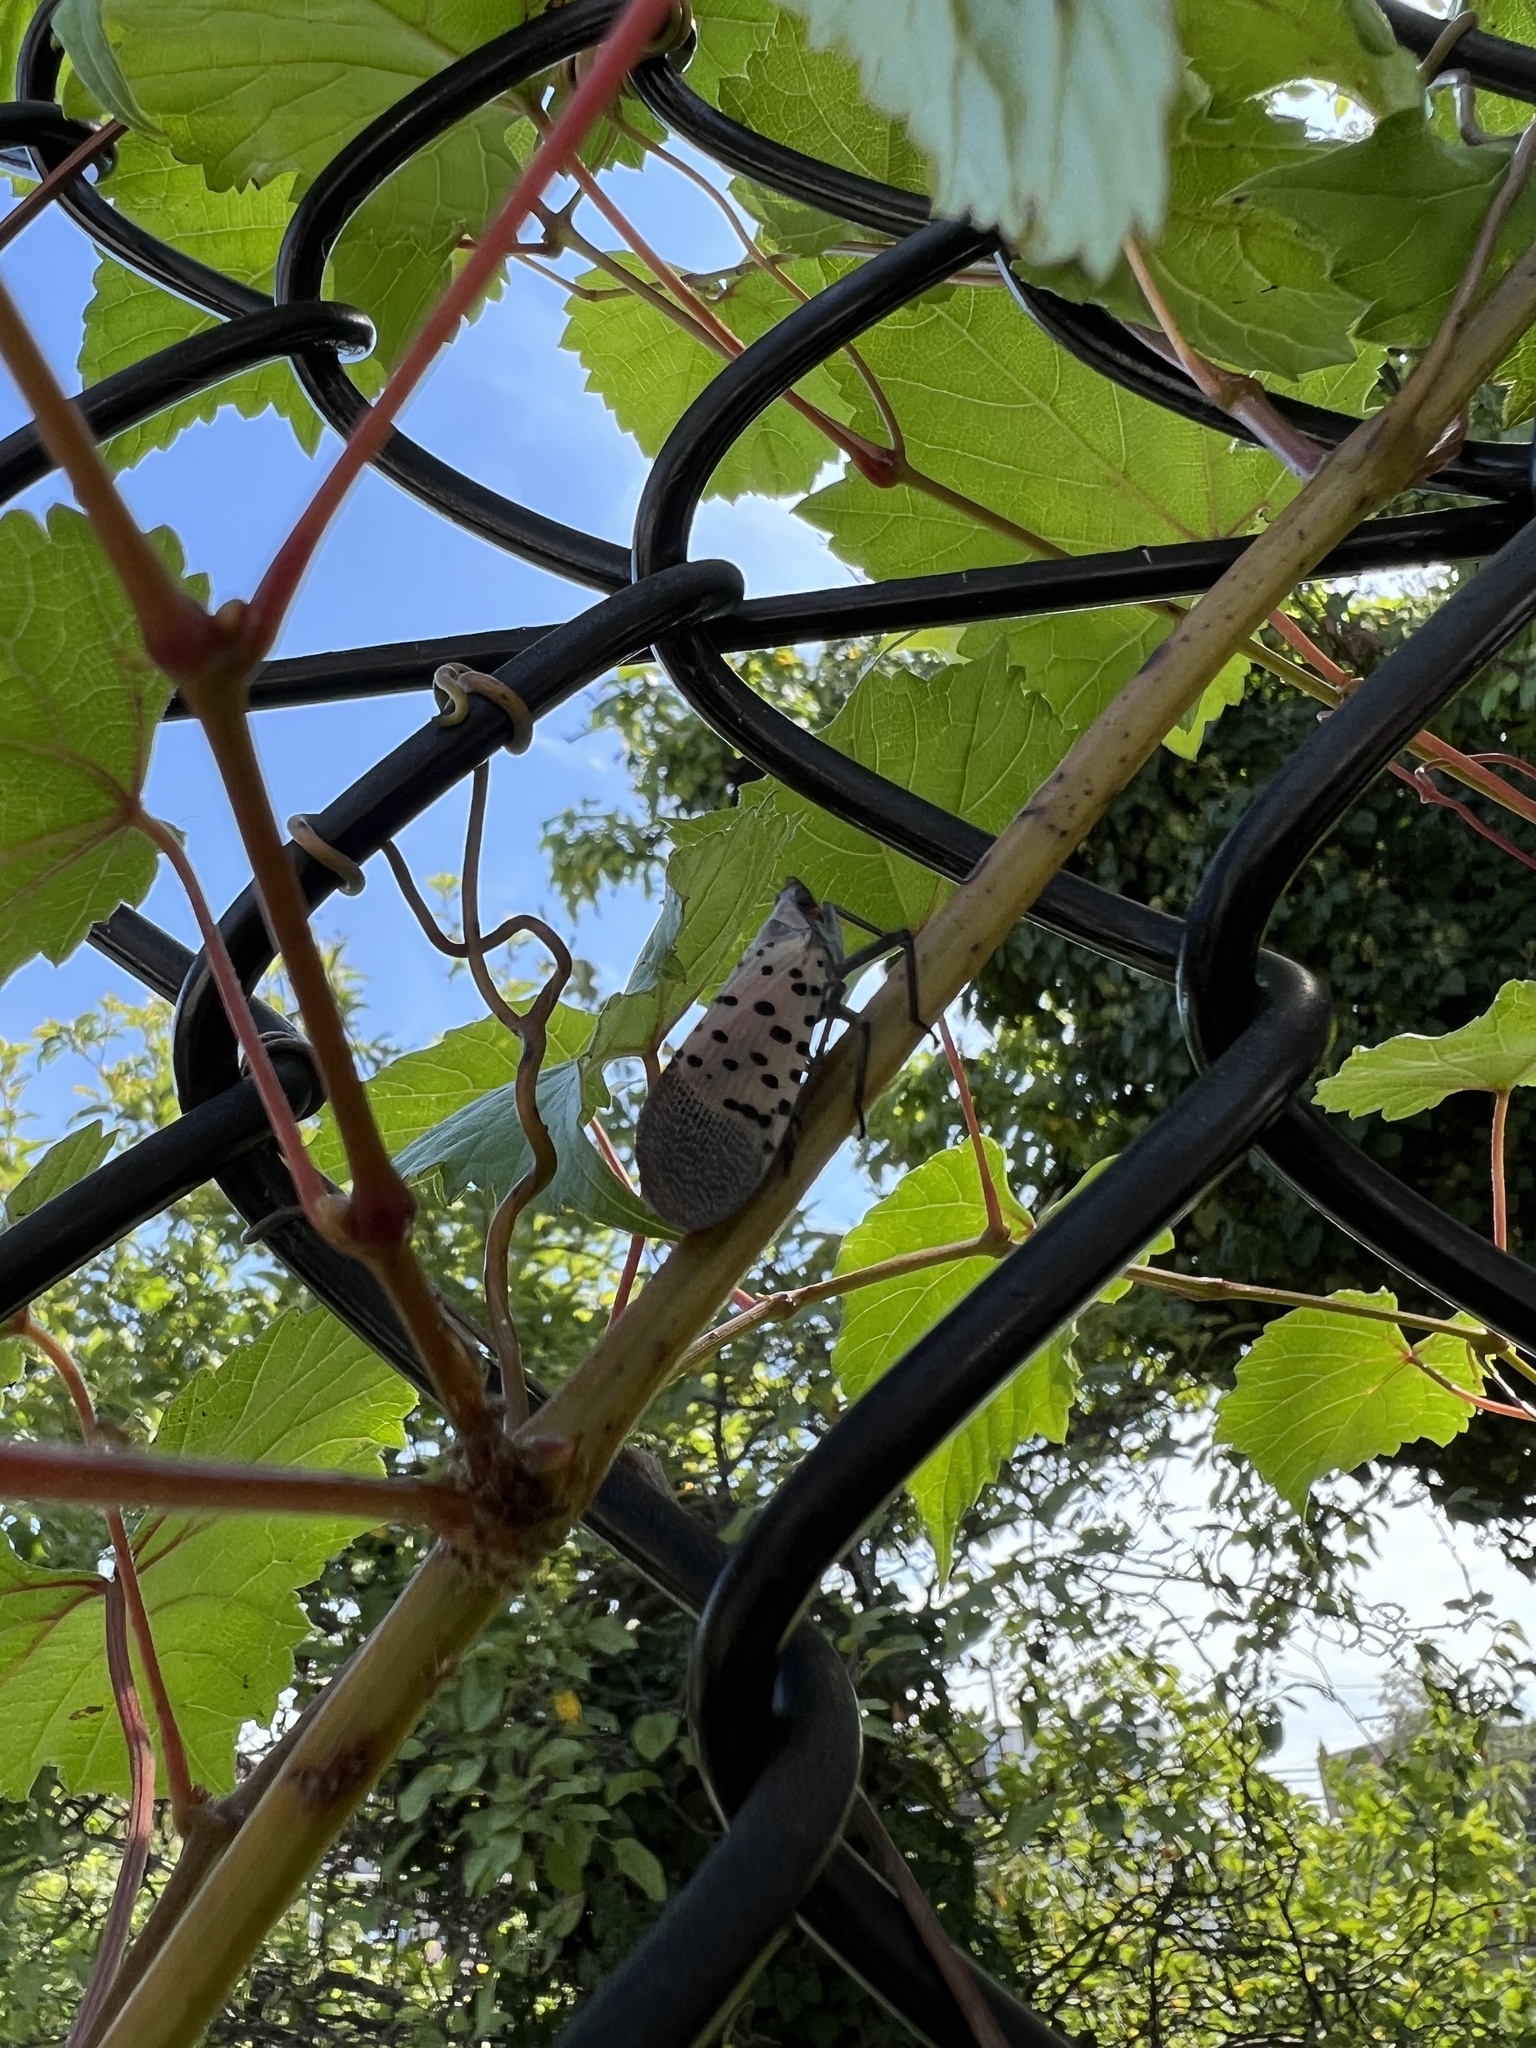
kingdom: Animalia
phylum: Arthropoda
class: Insecta
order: Hemiptera
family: Fulgoridae
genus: Lycorma
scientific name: Lycorma delicatula
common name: Spotted lanternfly
